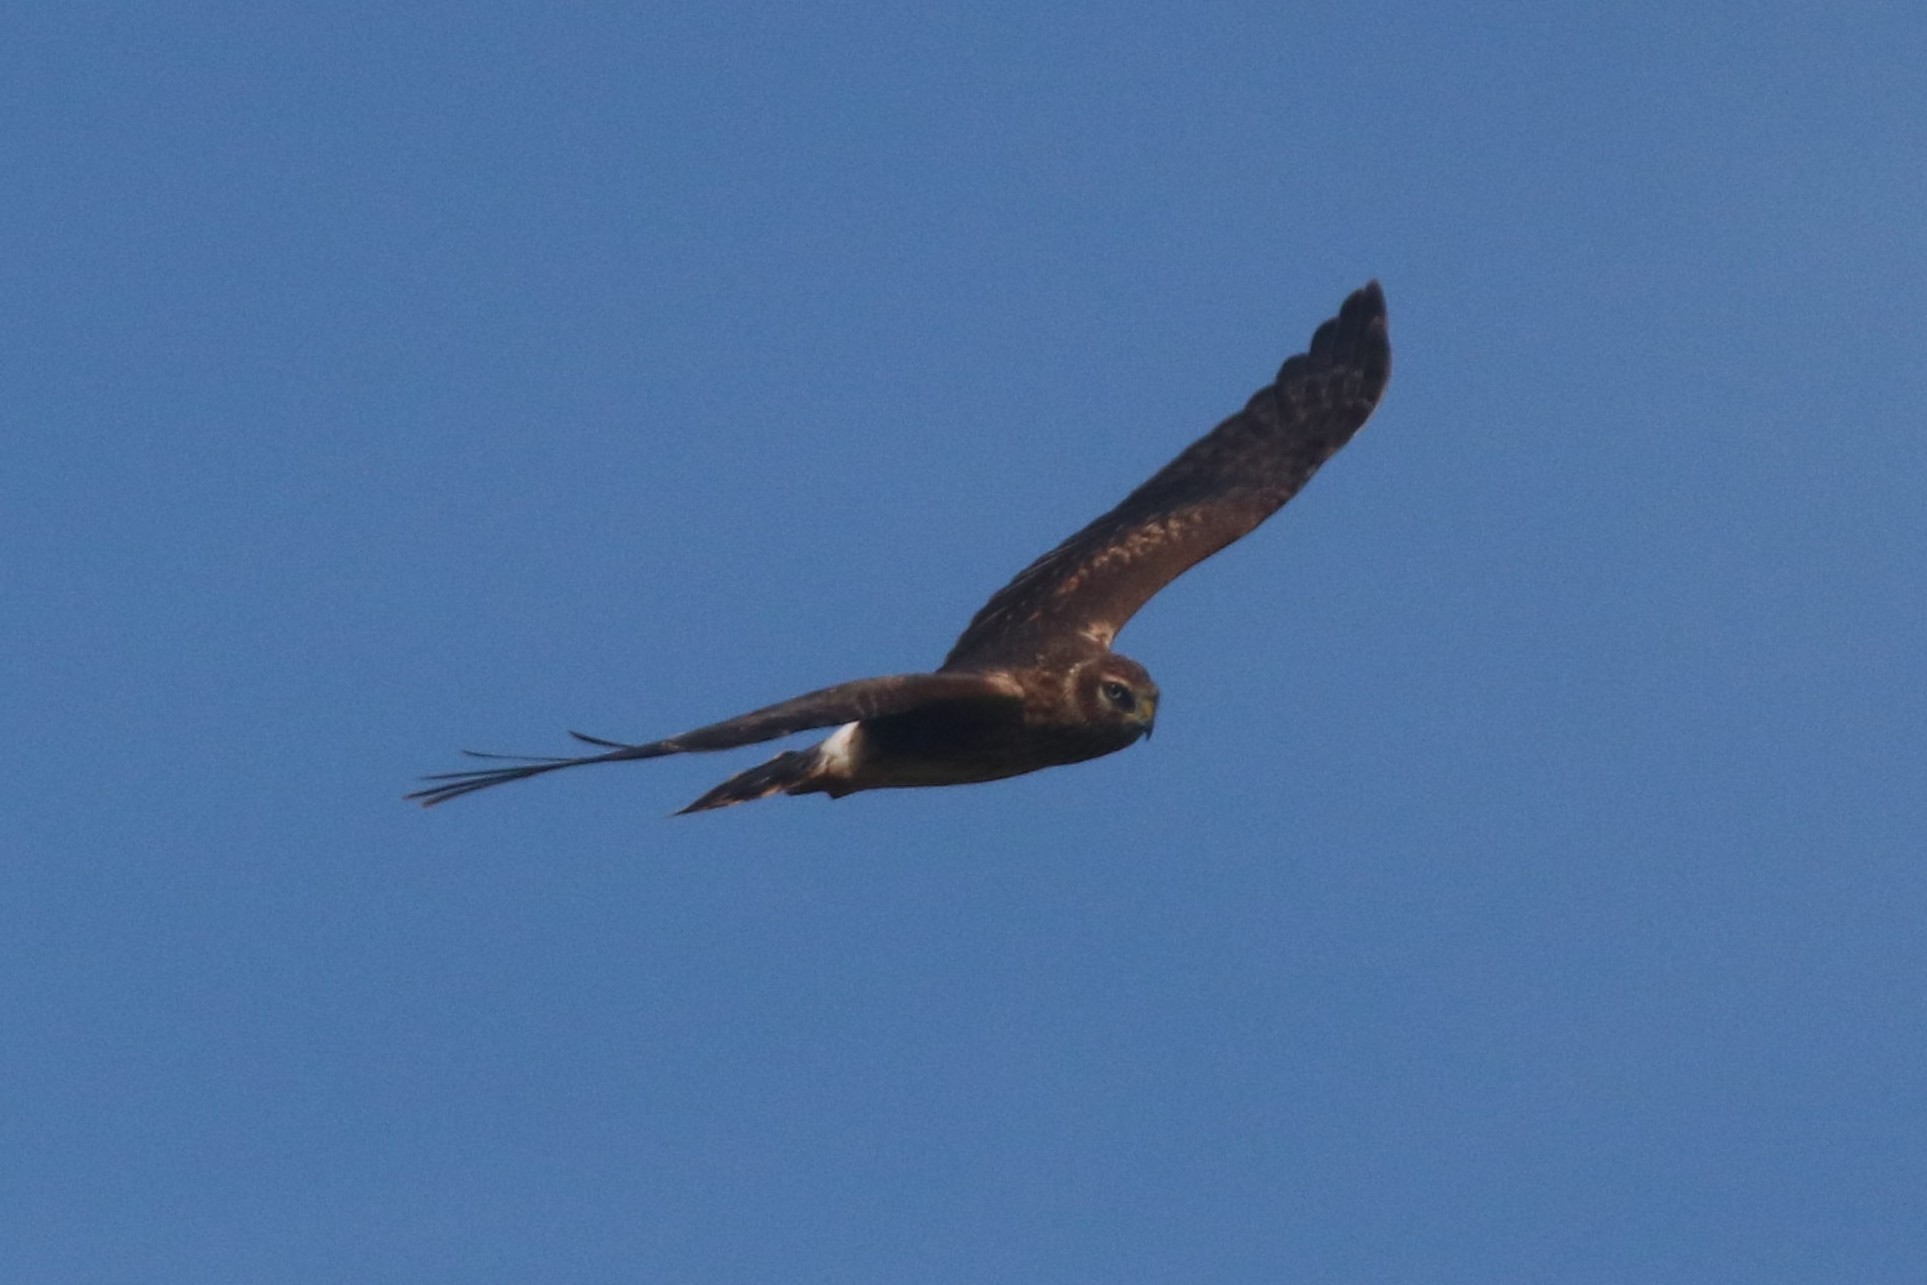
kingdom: Animalia
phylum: Chordata
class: Aves
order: Accipitriformes
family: Accipitridae
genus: Circus
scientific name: Circus cyaneus
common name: Hen harrier
